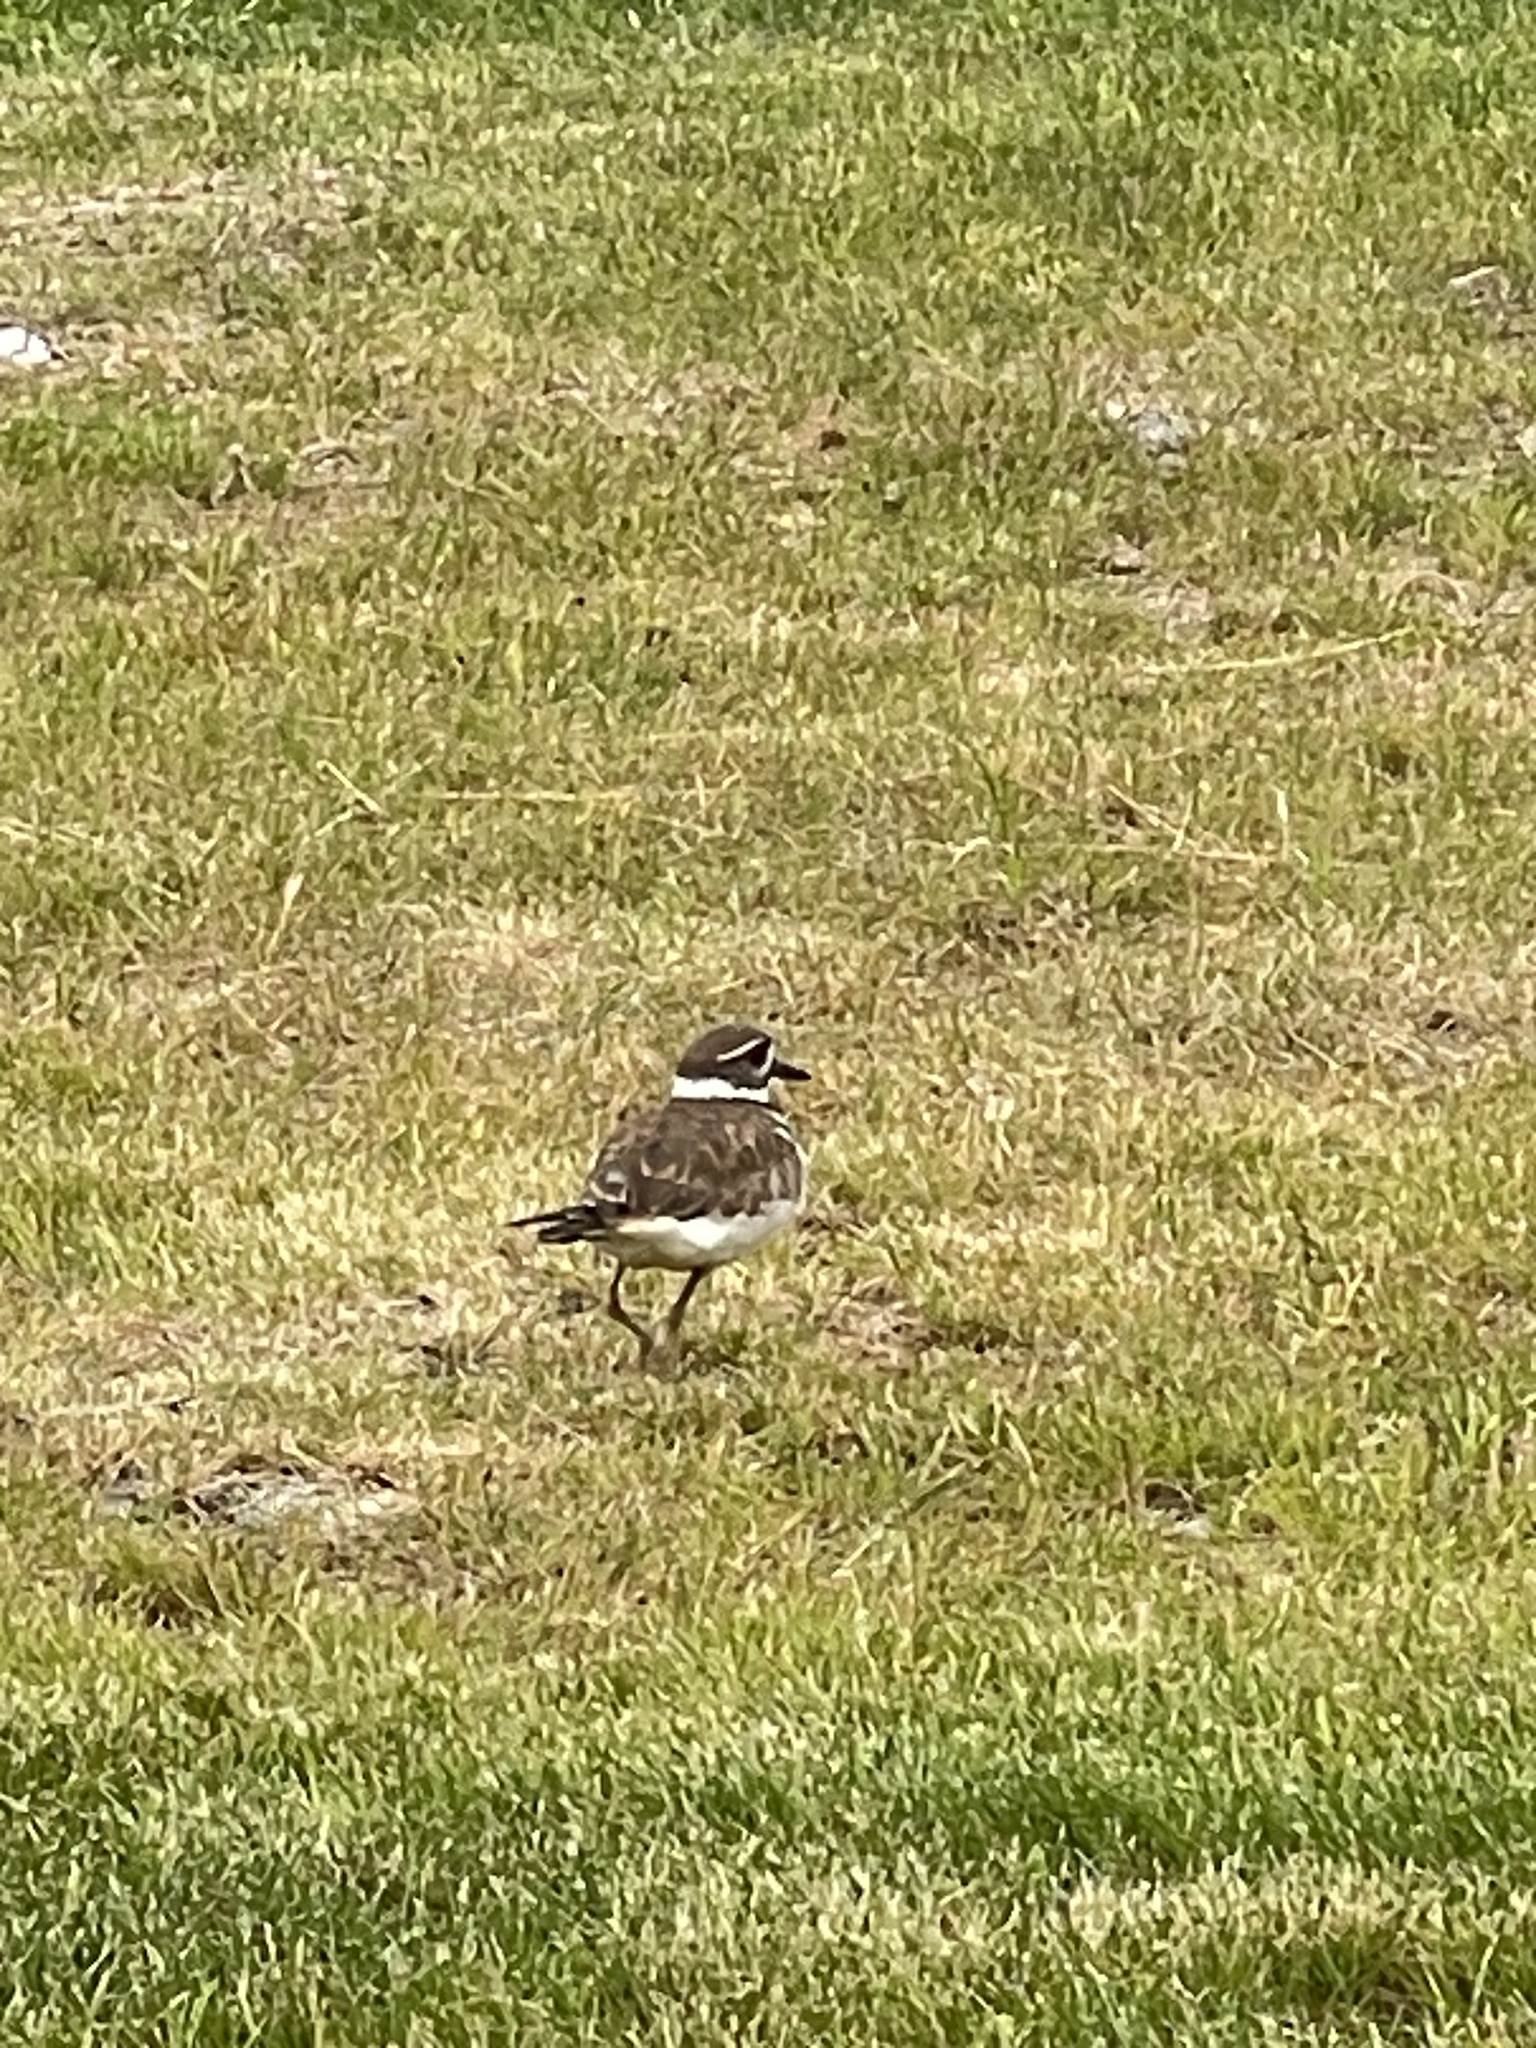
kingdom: Animalia
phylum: Chordata
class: Aves
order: Charadriiformes
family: Charadriidae
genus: Charadrius
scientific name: Charadrius vociferus
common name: Killdeer
